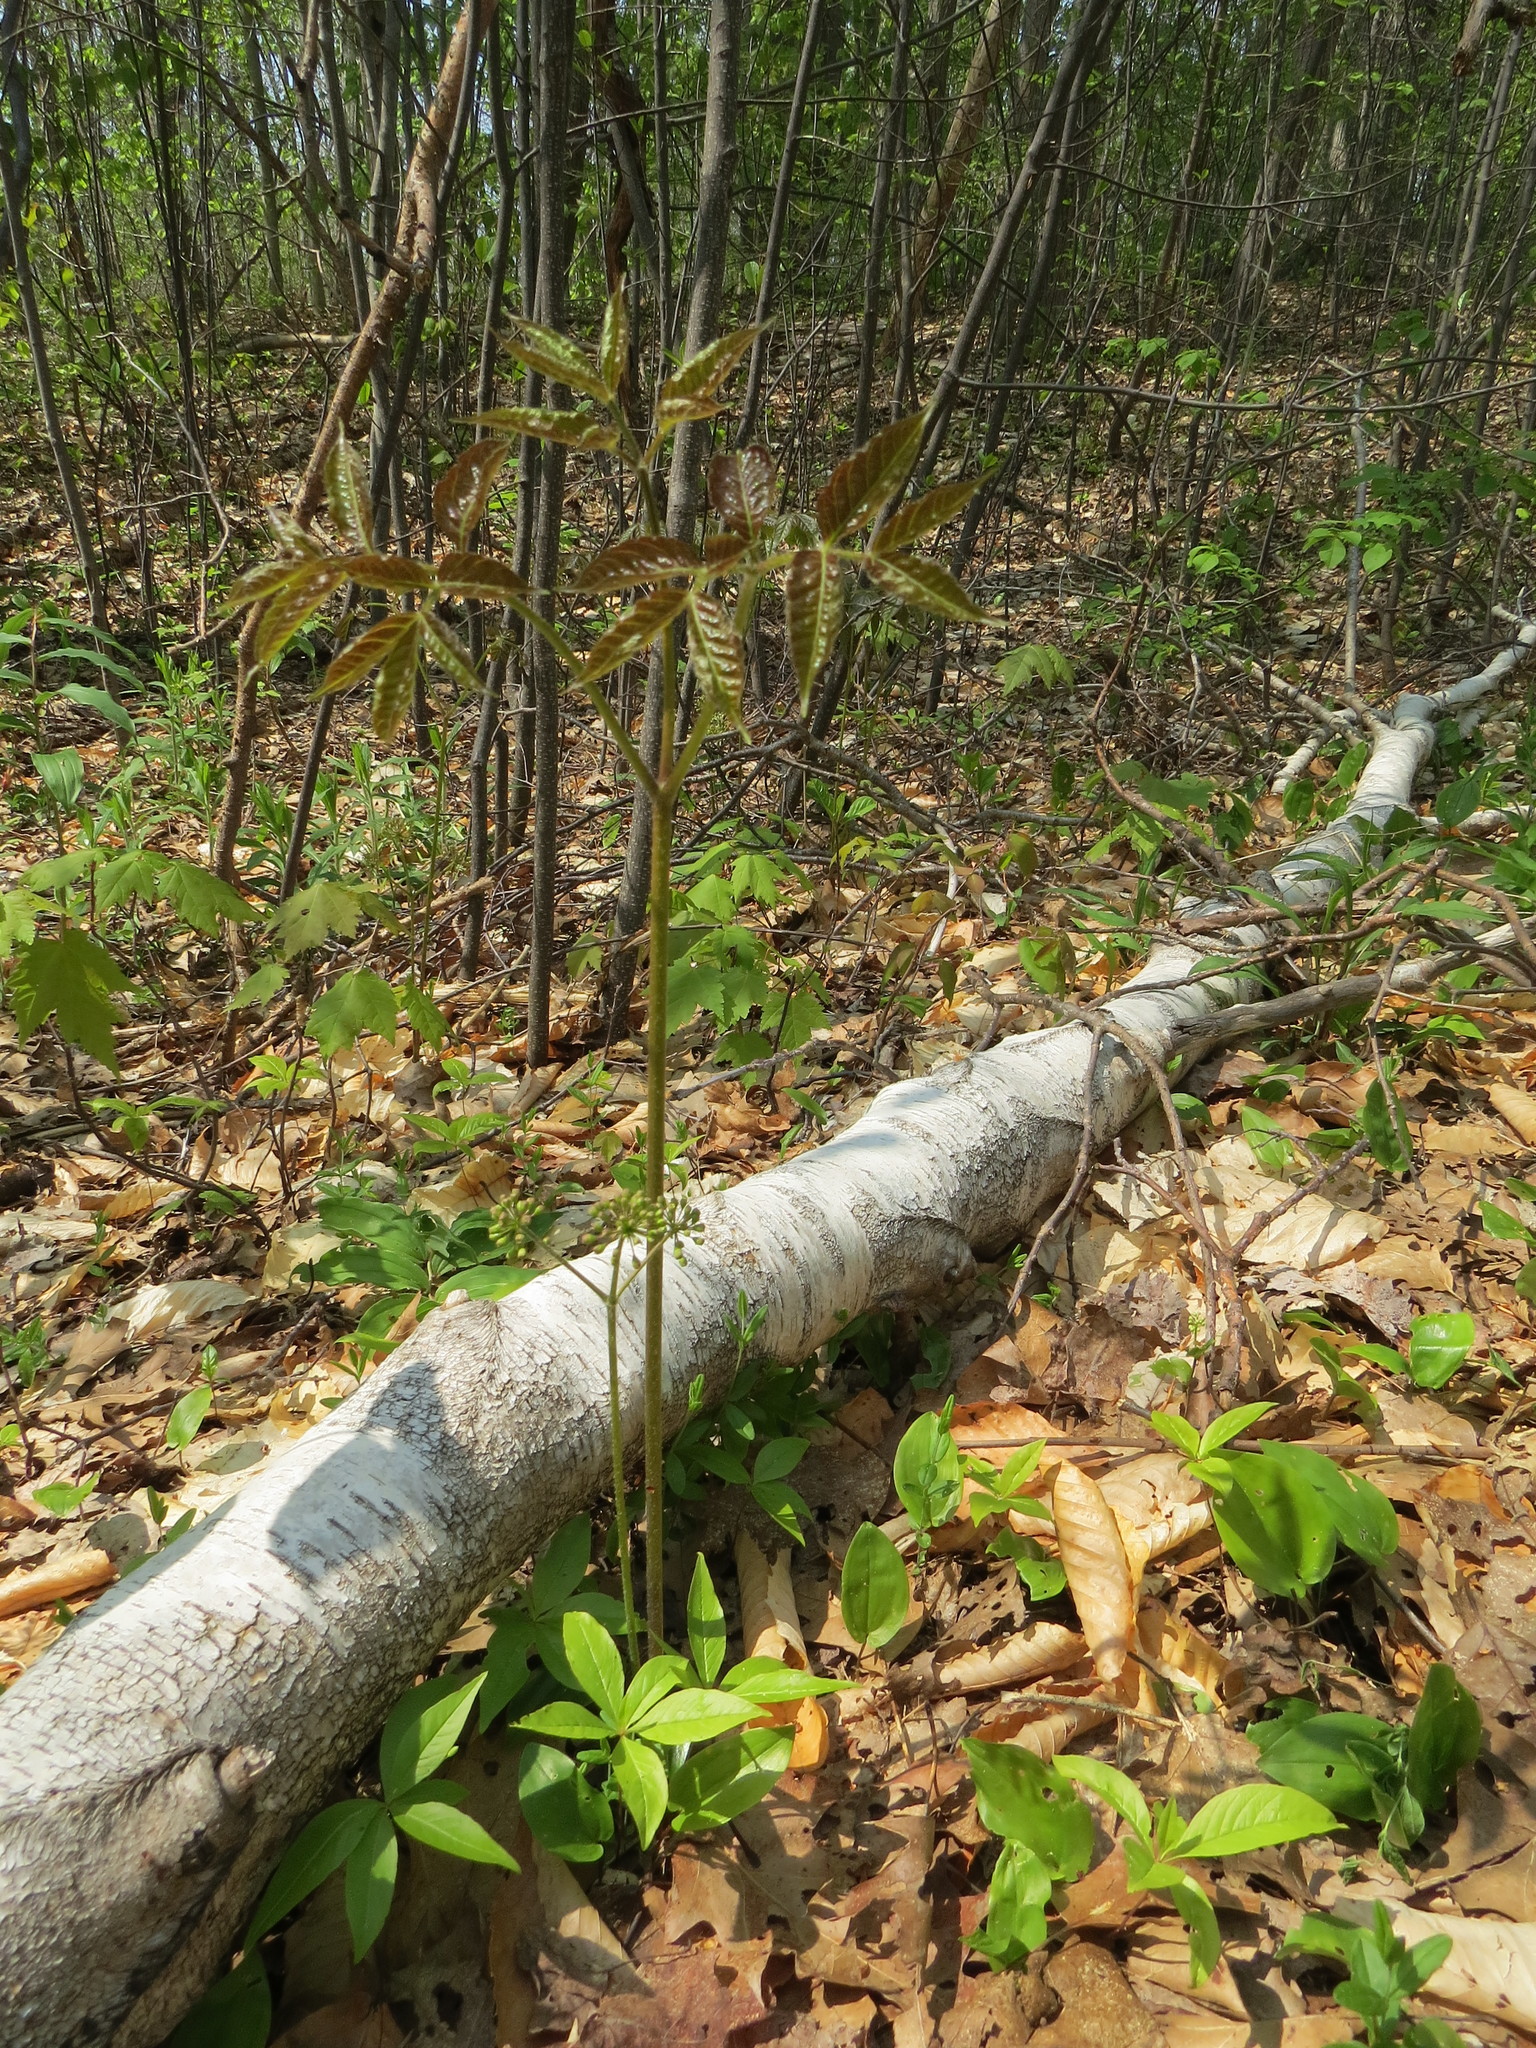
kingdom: Plantae
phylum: Tracheophyta
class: Magnoliopsida
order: Apiales
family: Araliaceae
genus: Aralia
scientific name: Aralia nudicaulis
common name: Wild sarsaparilla
